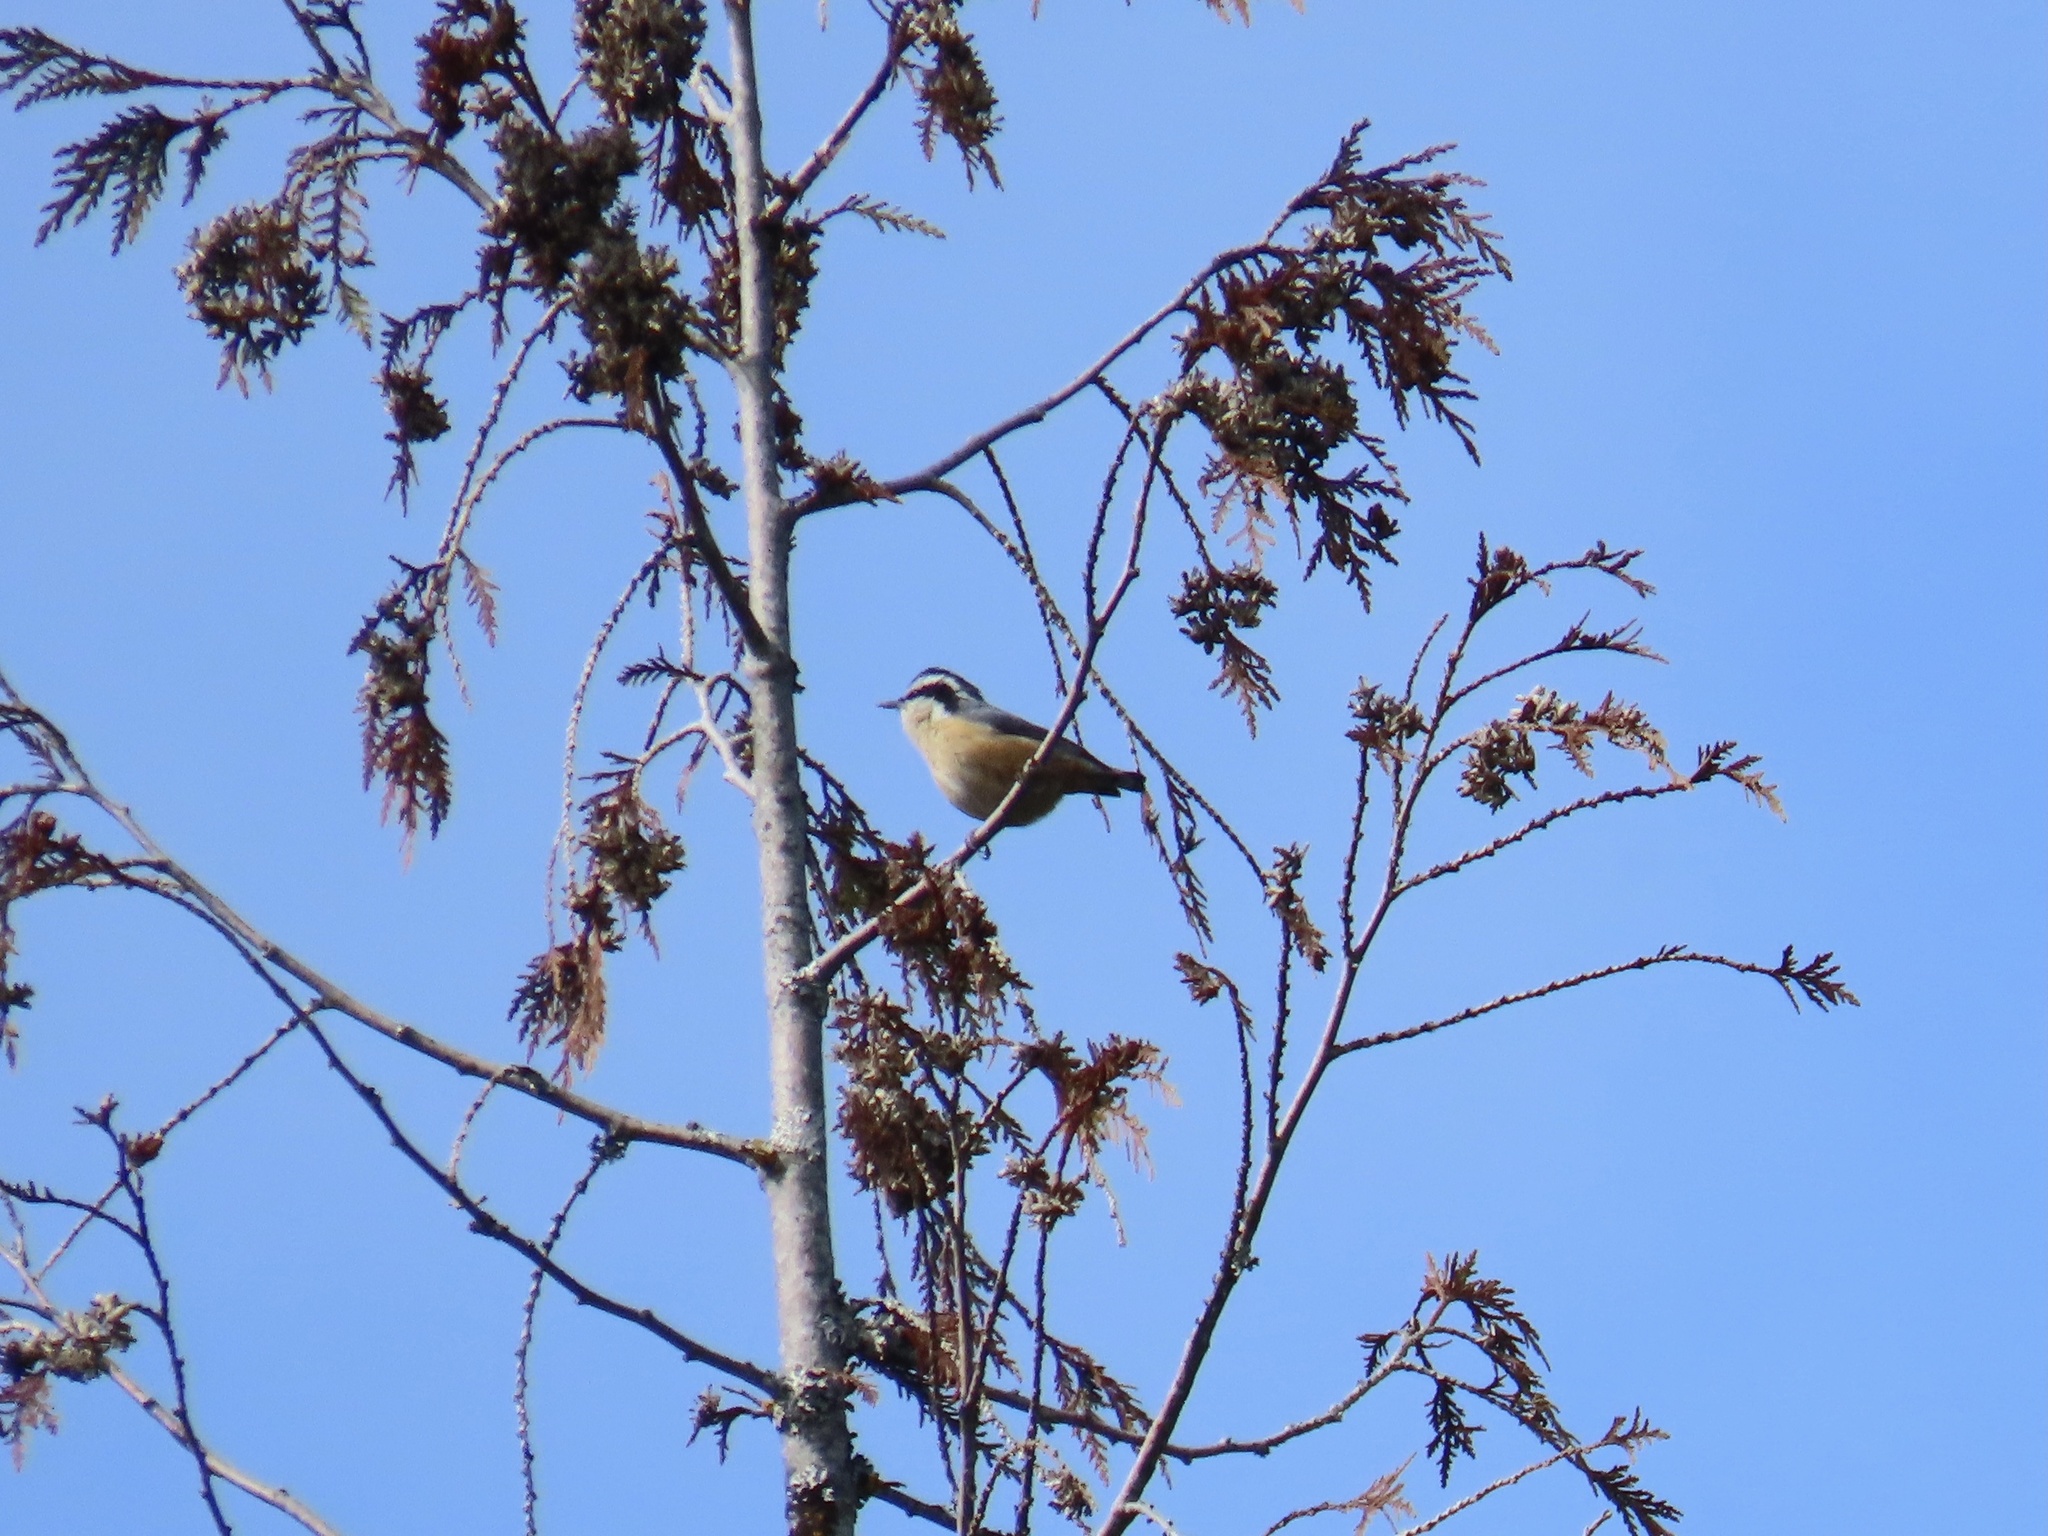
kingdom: Animalia
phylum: Chordata
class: Aves
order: Passeriformes
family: Sittidae
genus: Sitta
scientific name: Sitta canadensis
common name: Red-breasted nuthatch
